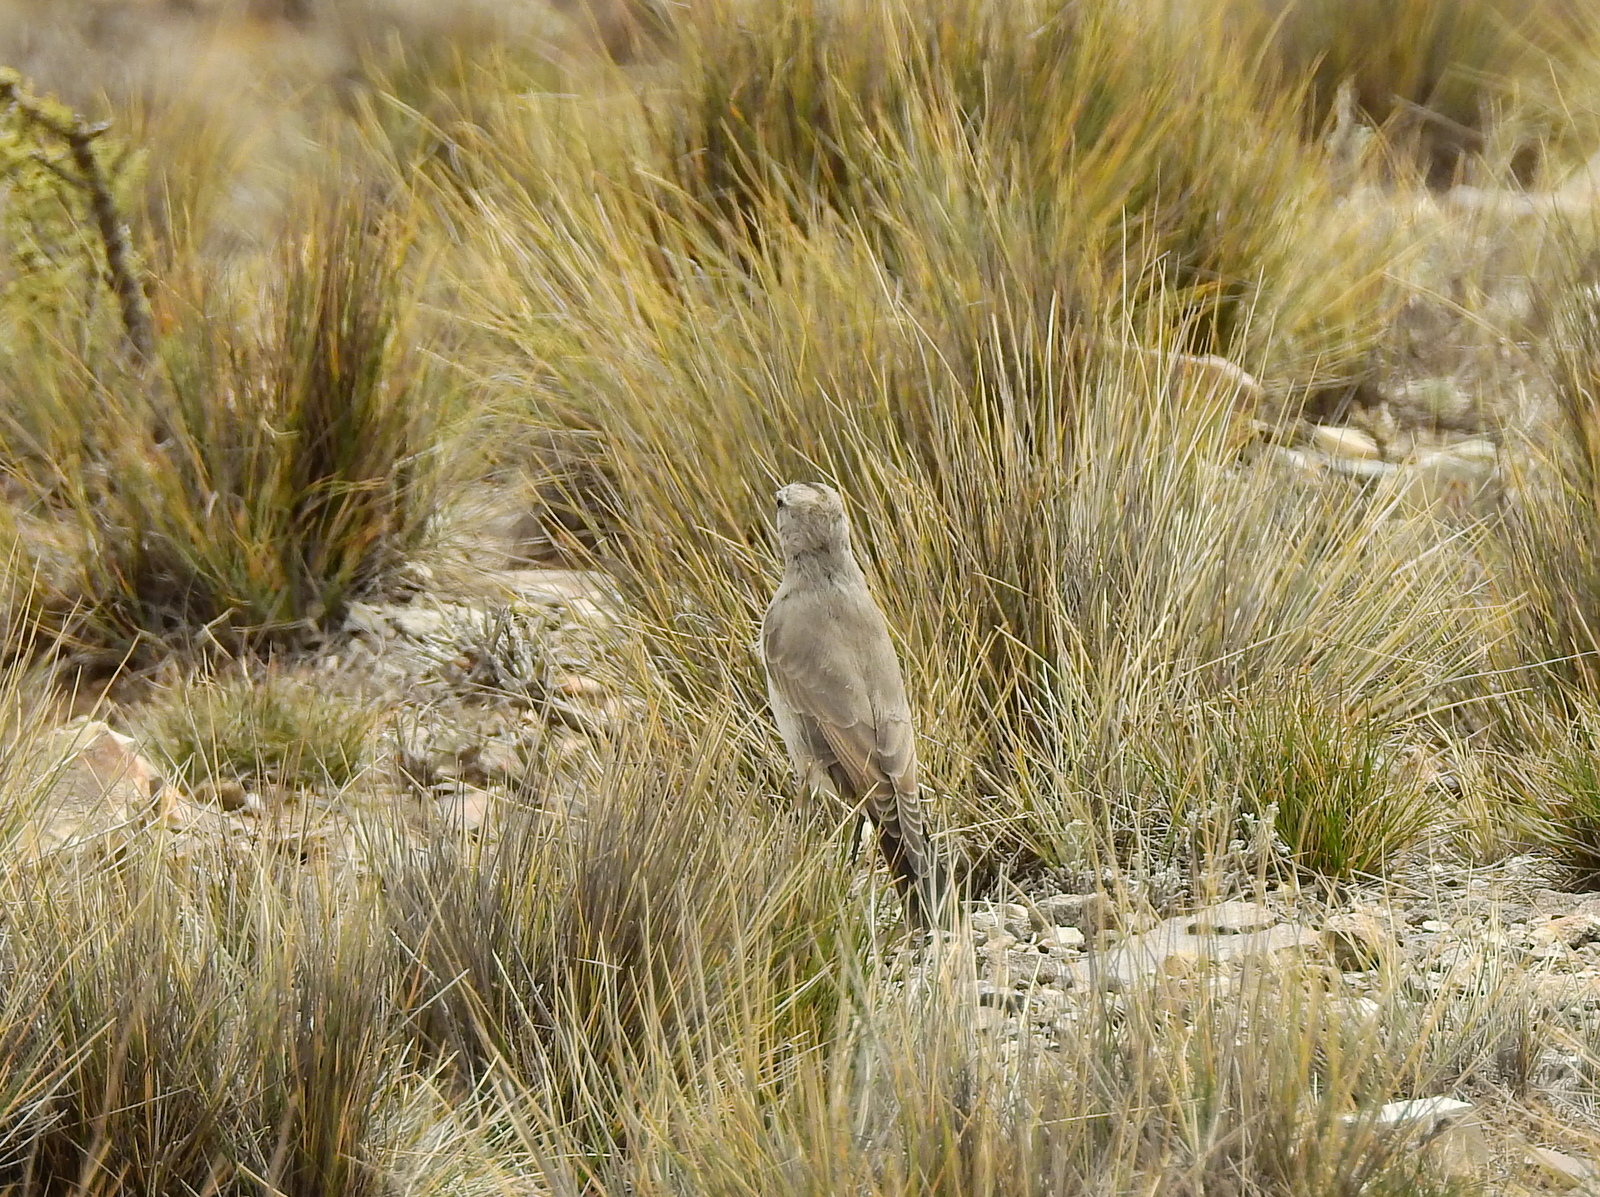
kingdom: Animalia
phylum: Chordata
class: Aves
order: Passeriformes
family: Tyrannidae
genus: Muscisaxicola
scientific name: Muscisaxicola frontalis
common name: Black-fronted ground tyrant
